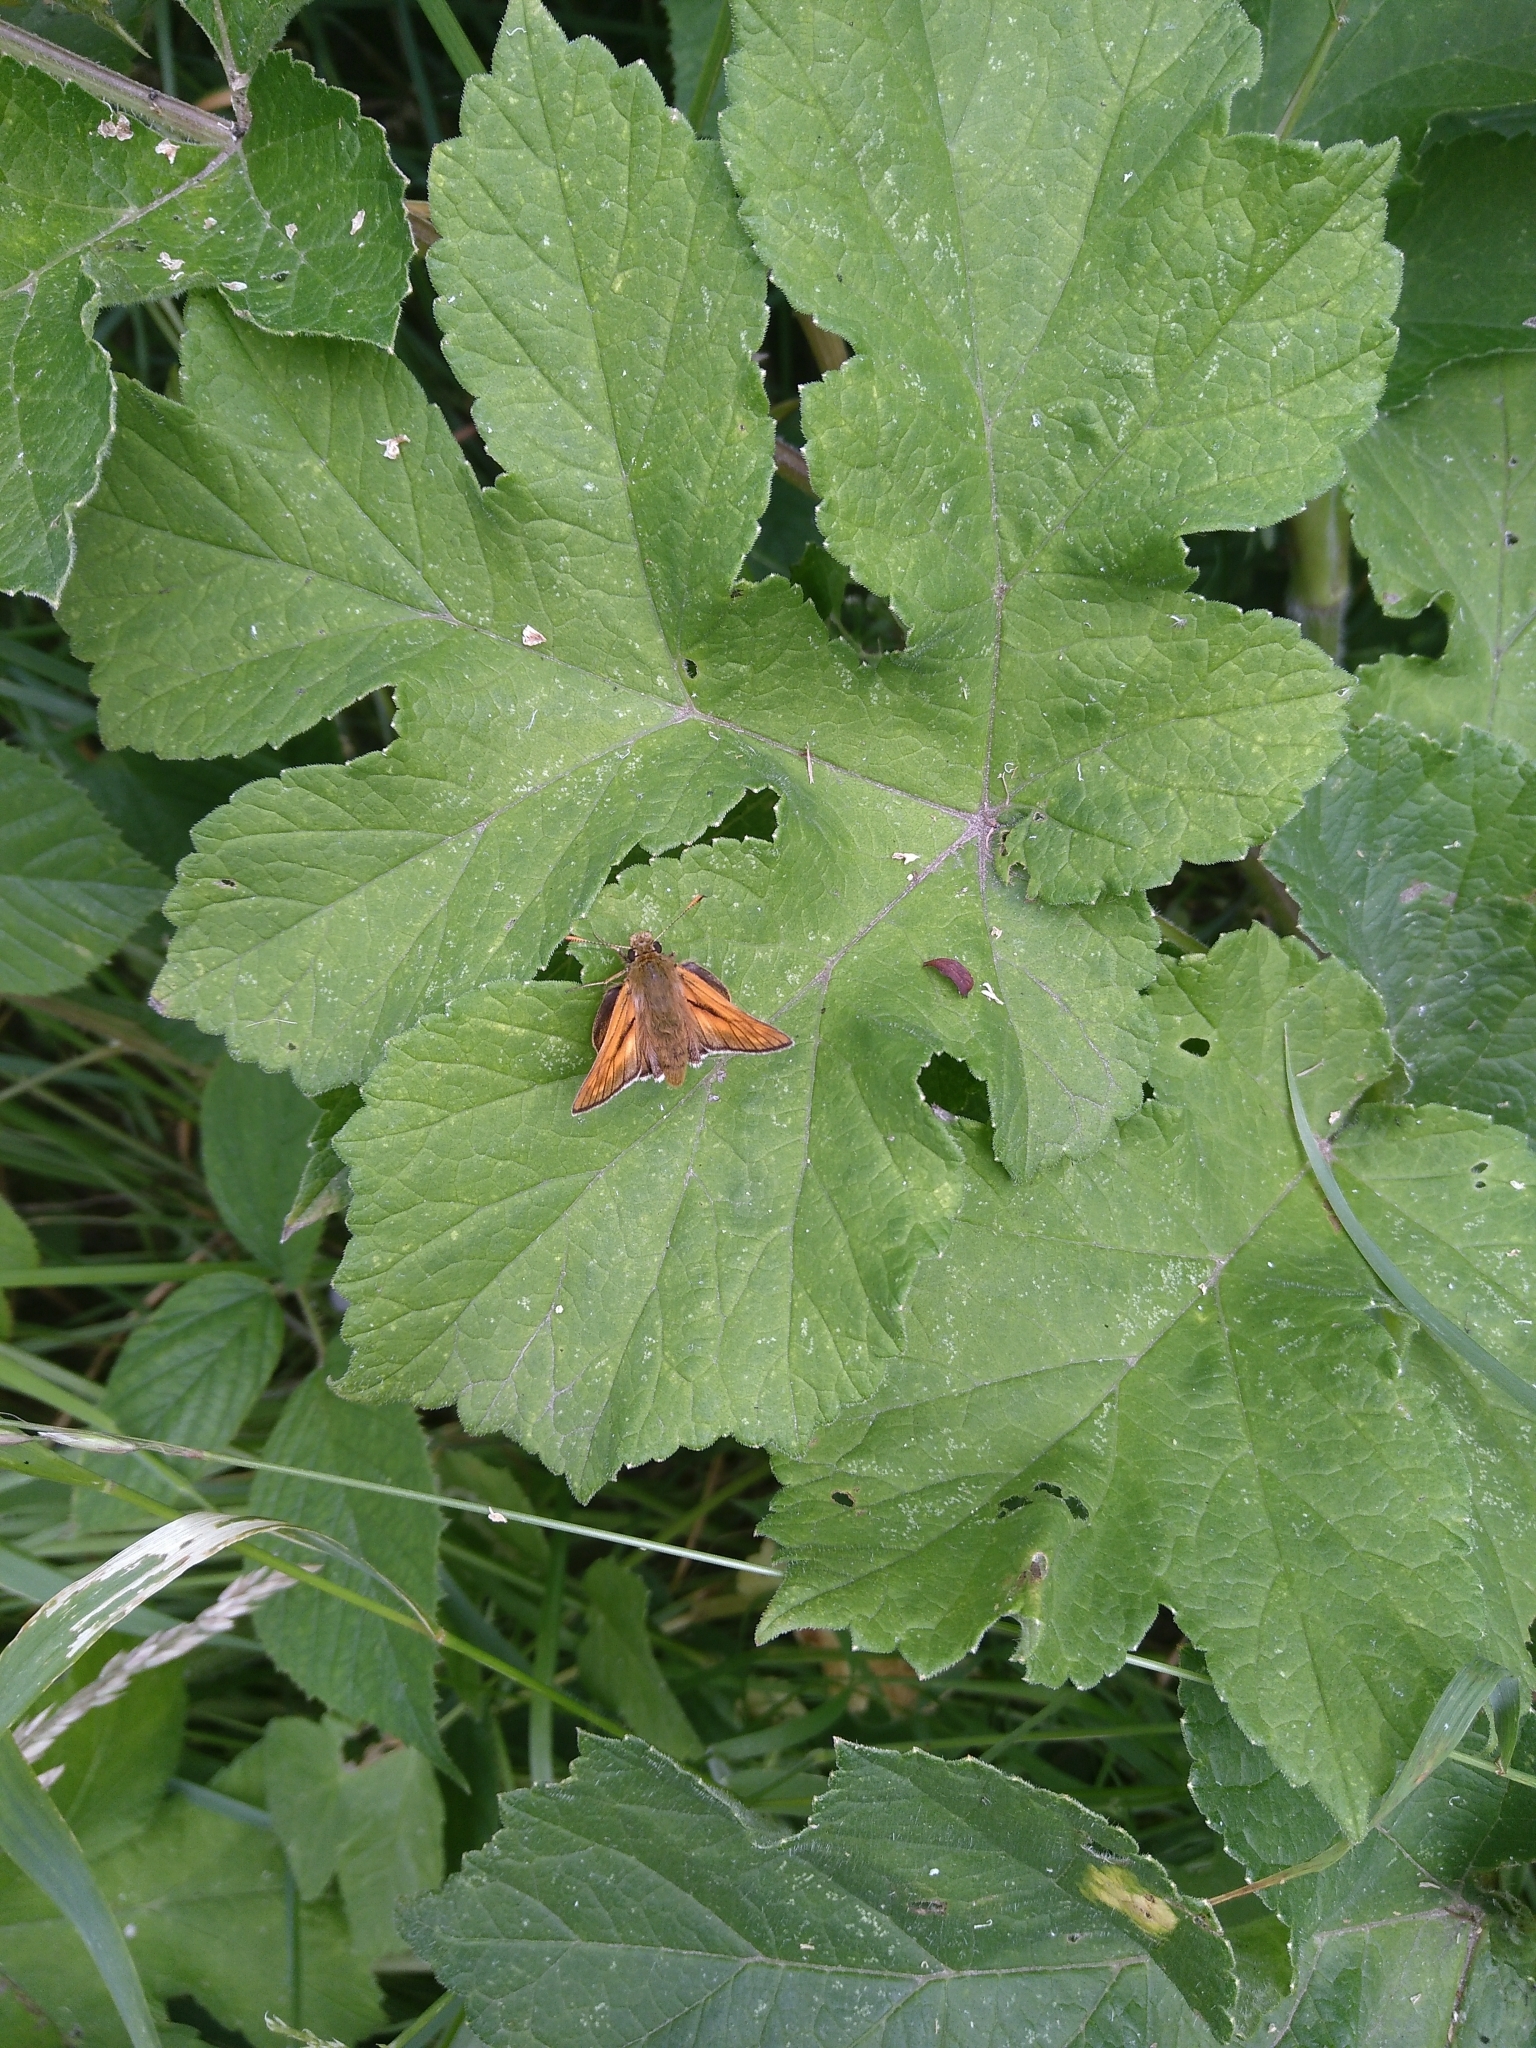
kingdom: Animalia
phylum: Arthropoda
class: Insecta
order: Lepidoptera
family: Hesperiidae
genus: Ochlodes
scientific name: Ochlodes venata
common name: Large skipper
